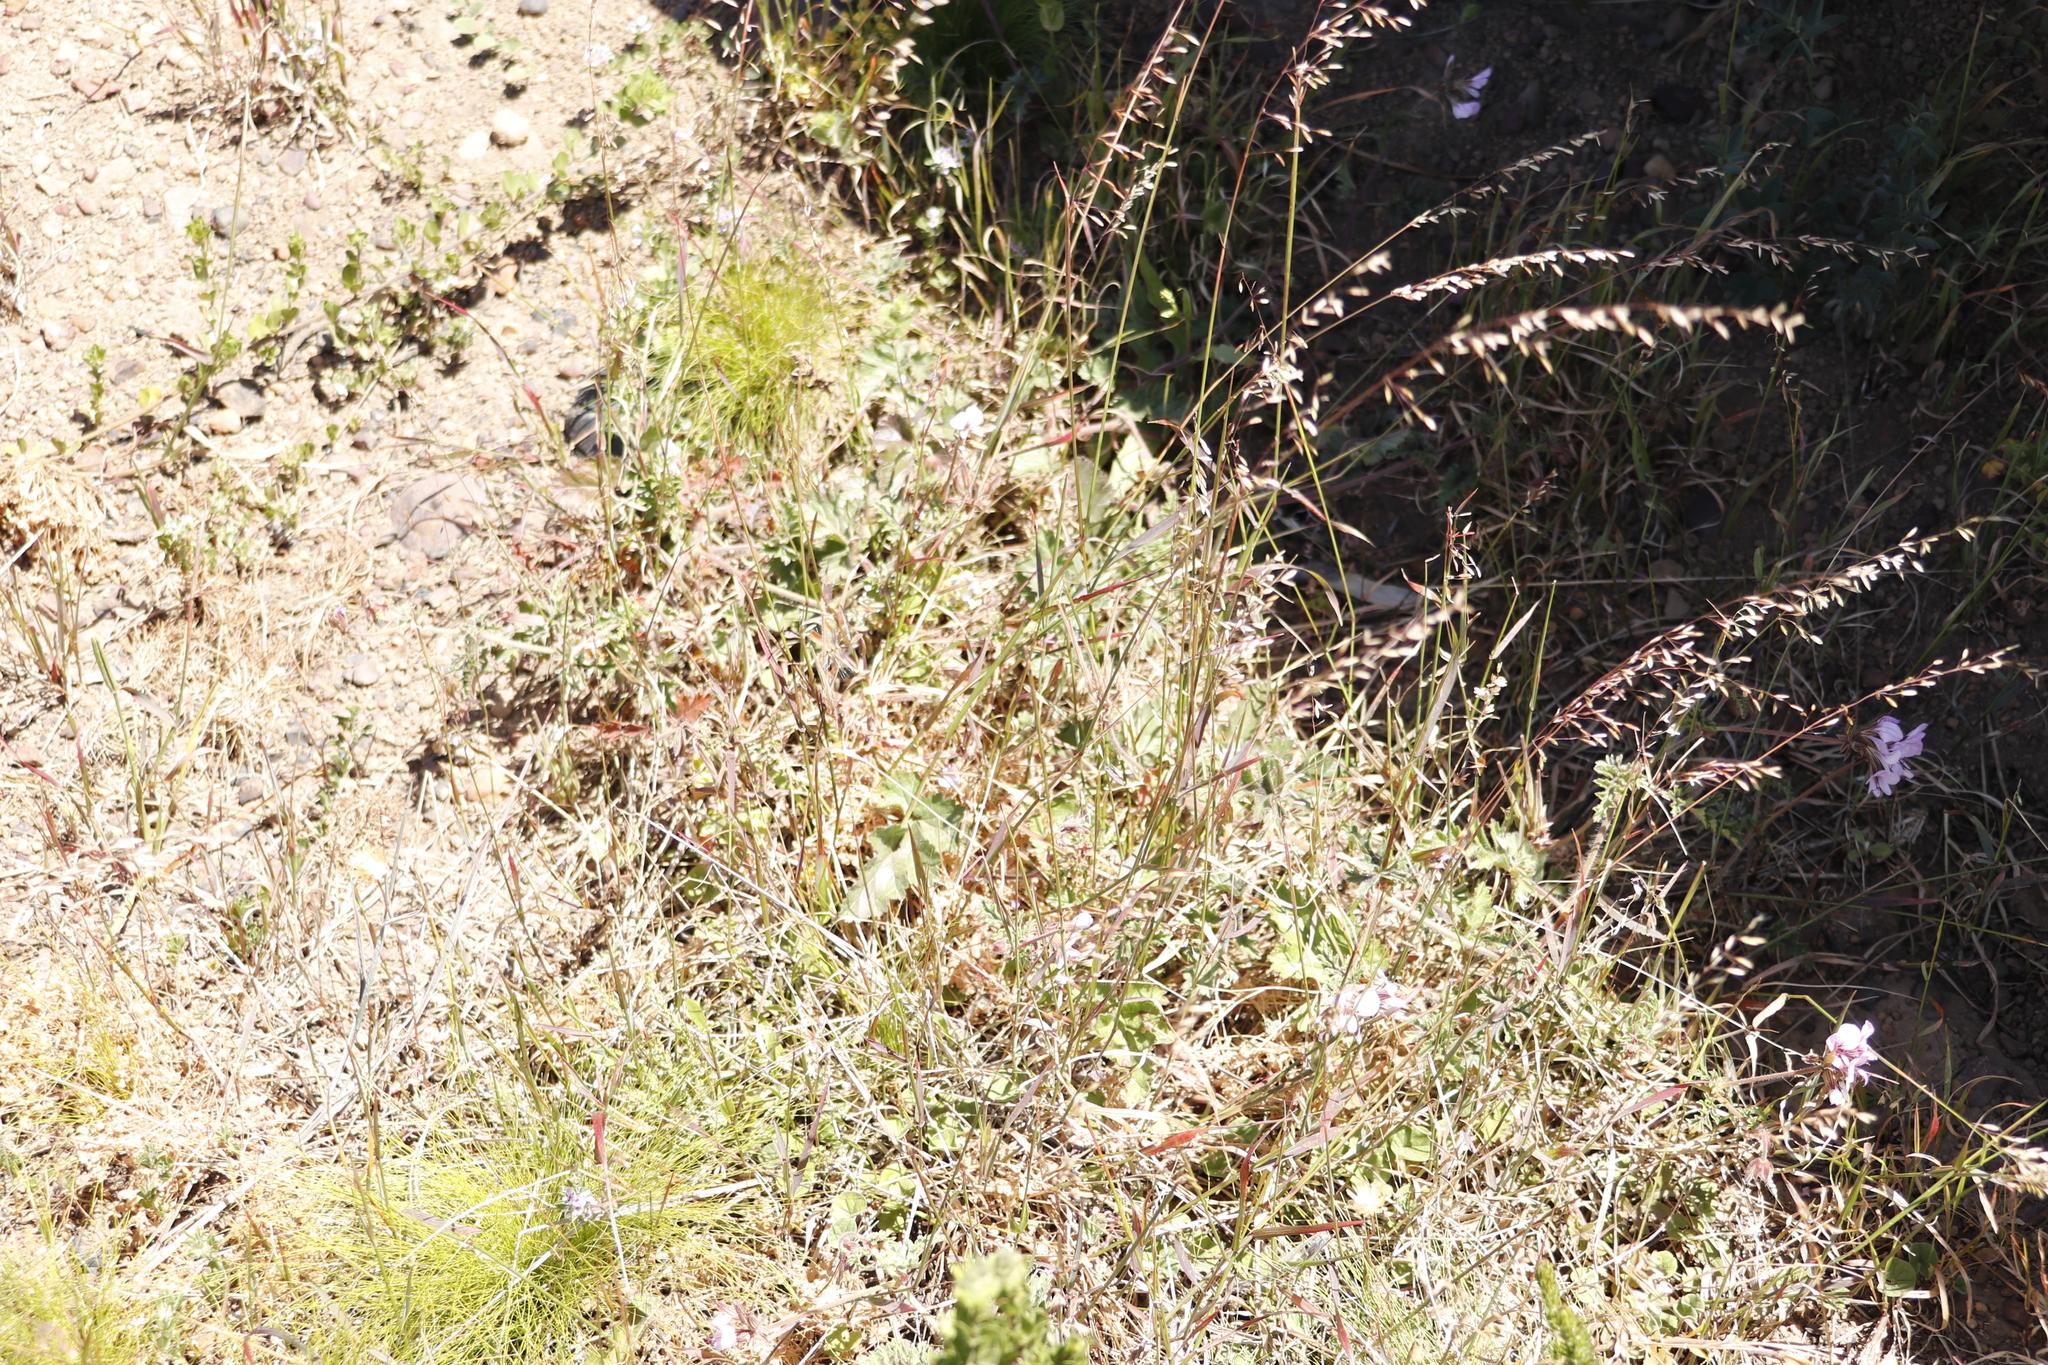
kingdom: Plantae
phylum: Tracheophyta
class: Magnoliopsida
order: Geraniales
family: Geraniaceae
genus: Pelargonium
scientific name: Pelargonium myrrhifolium
